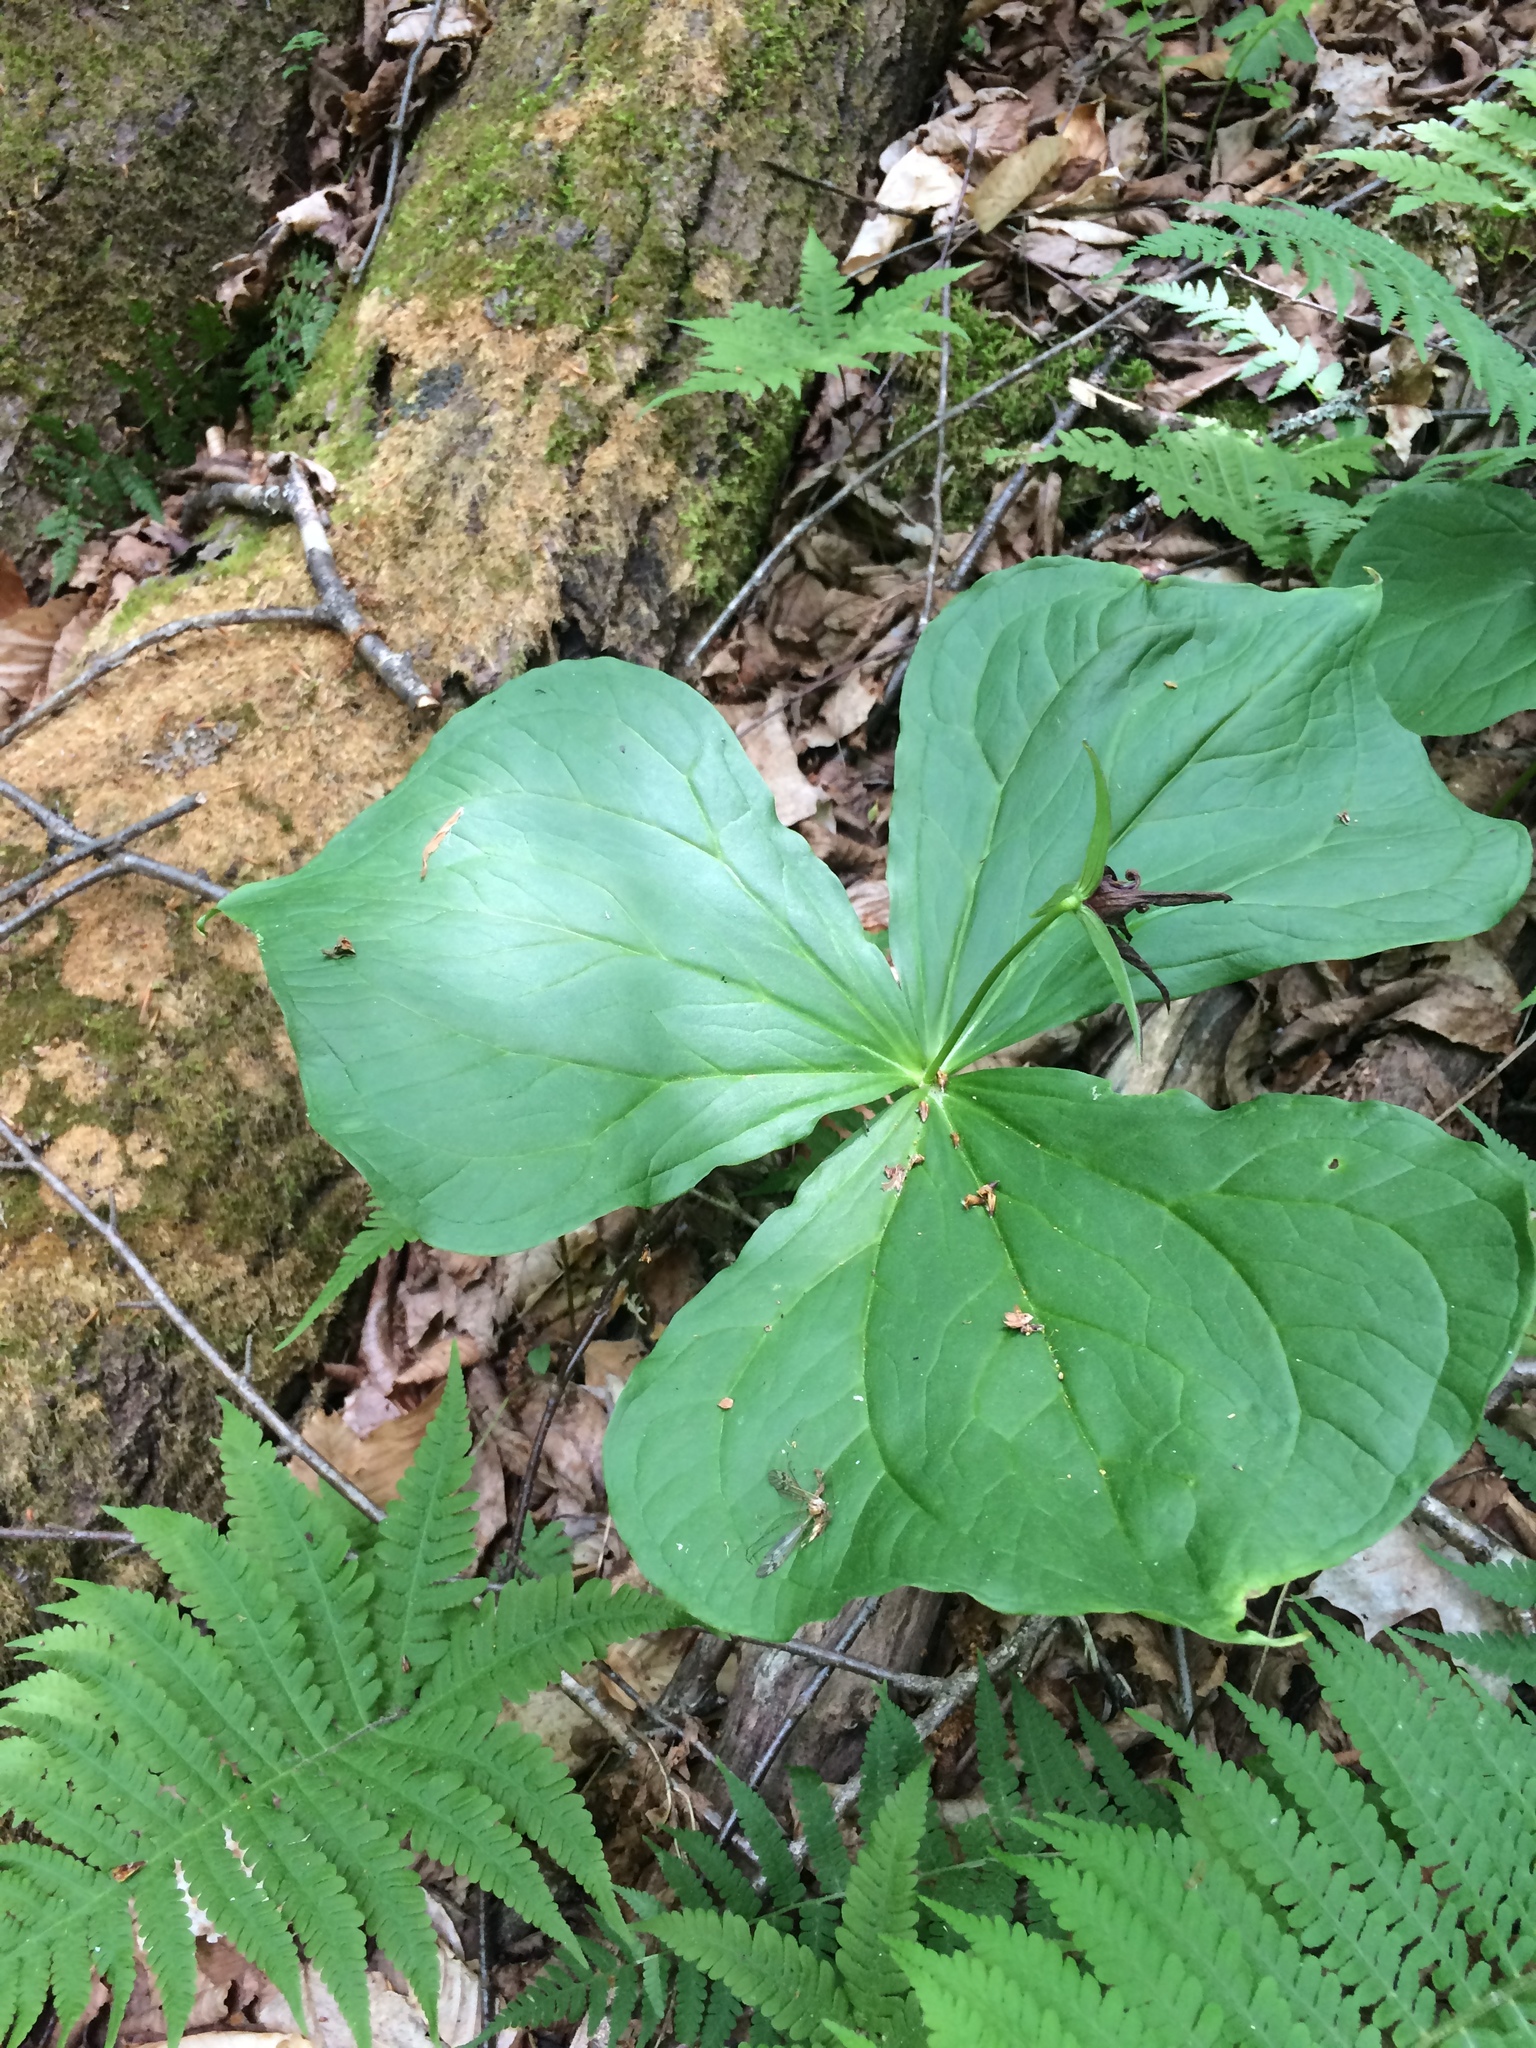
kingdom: Plantae
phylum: Tracheophyta
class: Liliopsida
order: Liliales
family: Melanthiaceae
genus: Trillium
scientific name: Trillium erectum
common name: Purple trillium
